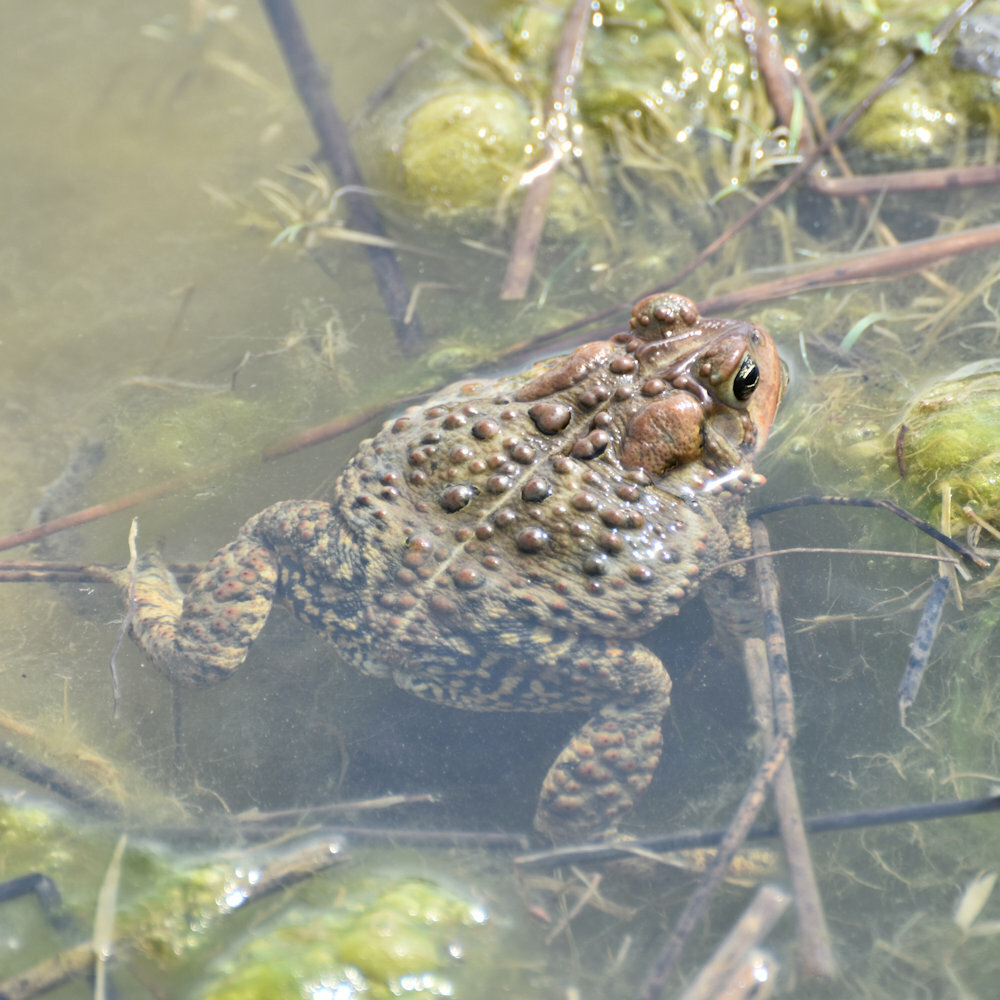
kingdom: Animalia
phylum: Chordata
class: Amphibia
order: Anura
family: Bufonidae
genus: Anaxyrus
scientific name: Anaxyrus americanus
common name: American toad
